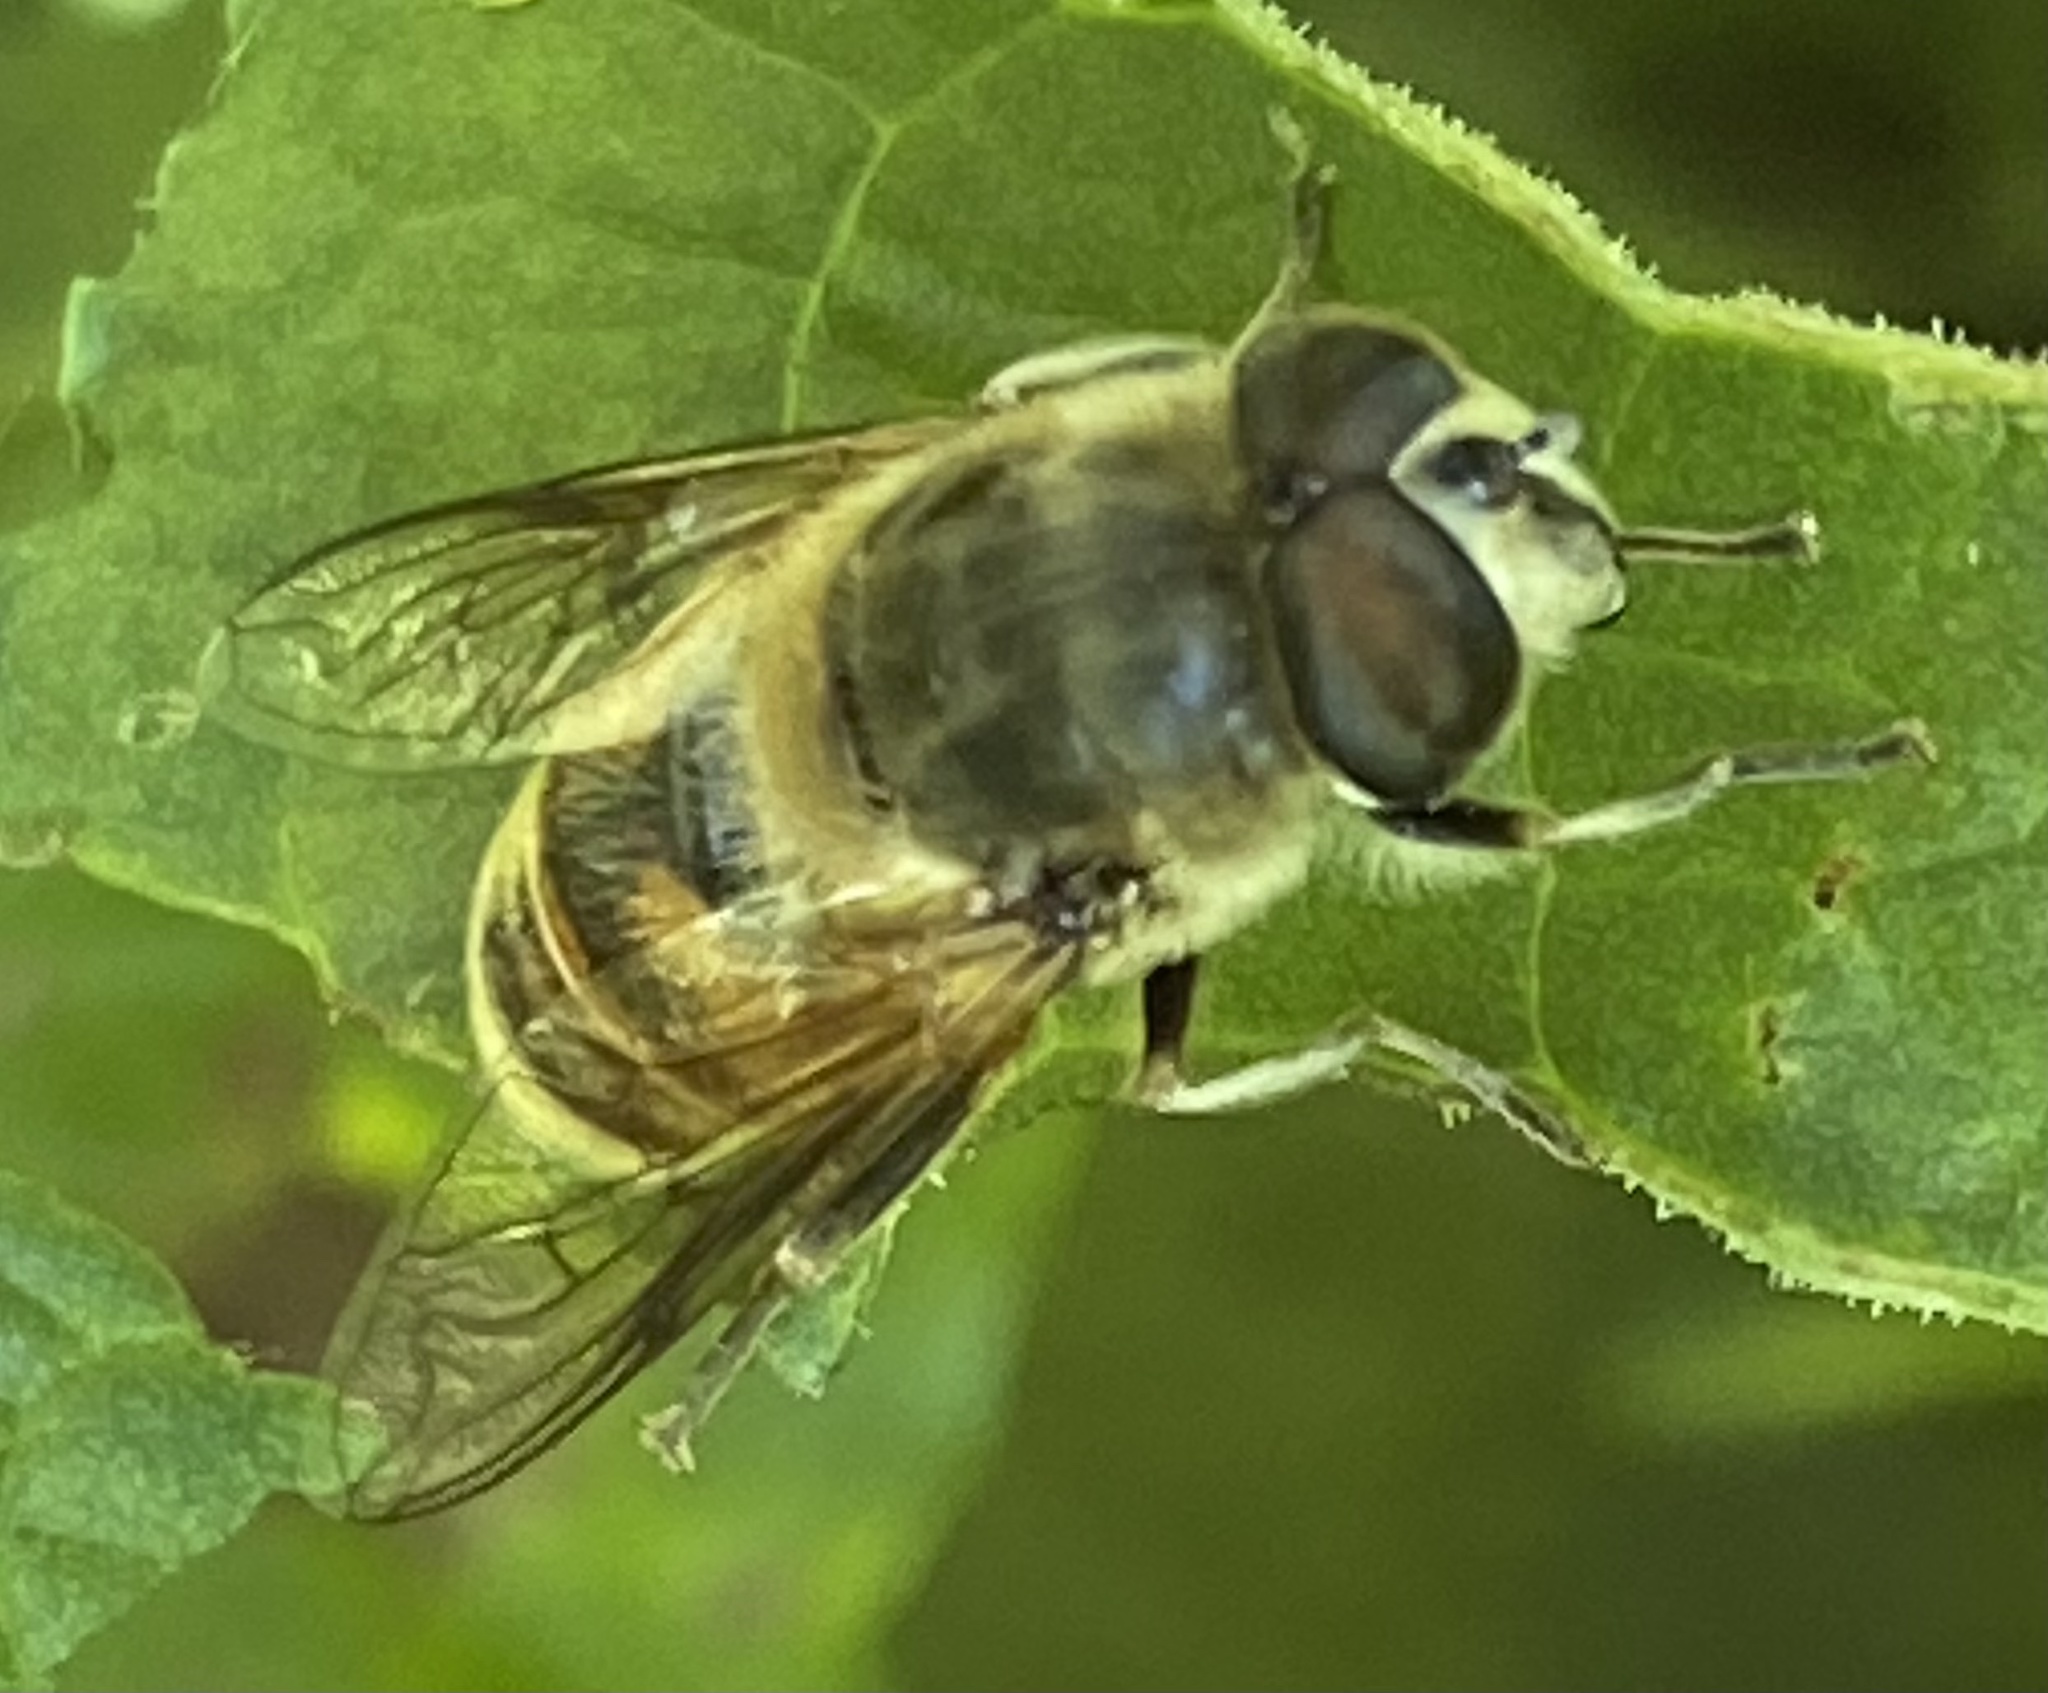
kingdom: Animalia
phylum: Arthropoda
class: Insecta
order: Diptera
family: Syrphidae
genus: Eristalis
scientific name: Eristalis tenax
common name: Drone fly
